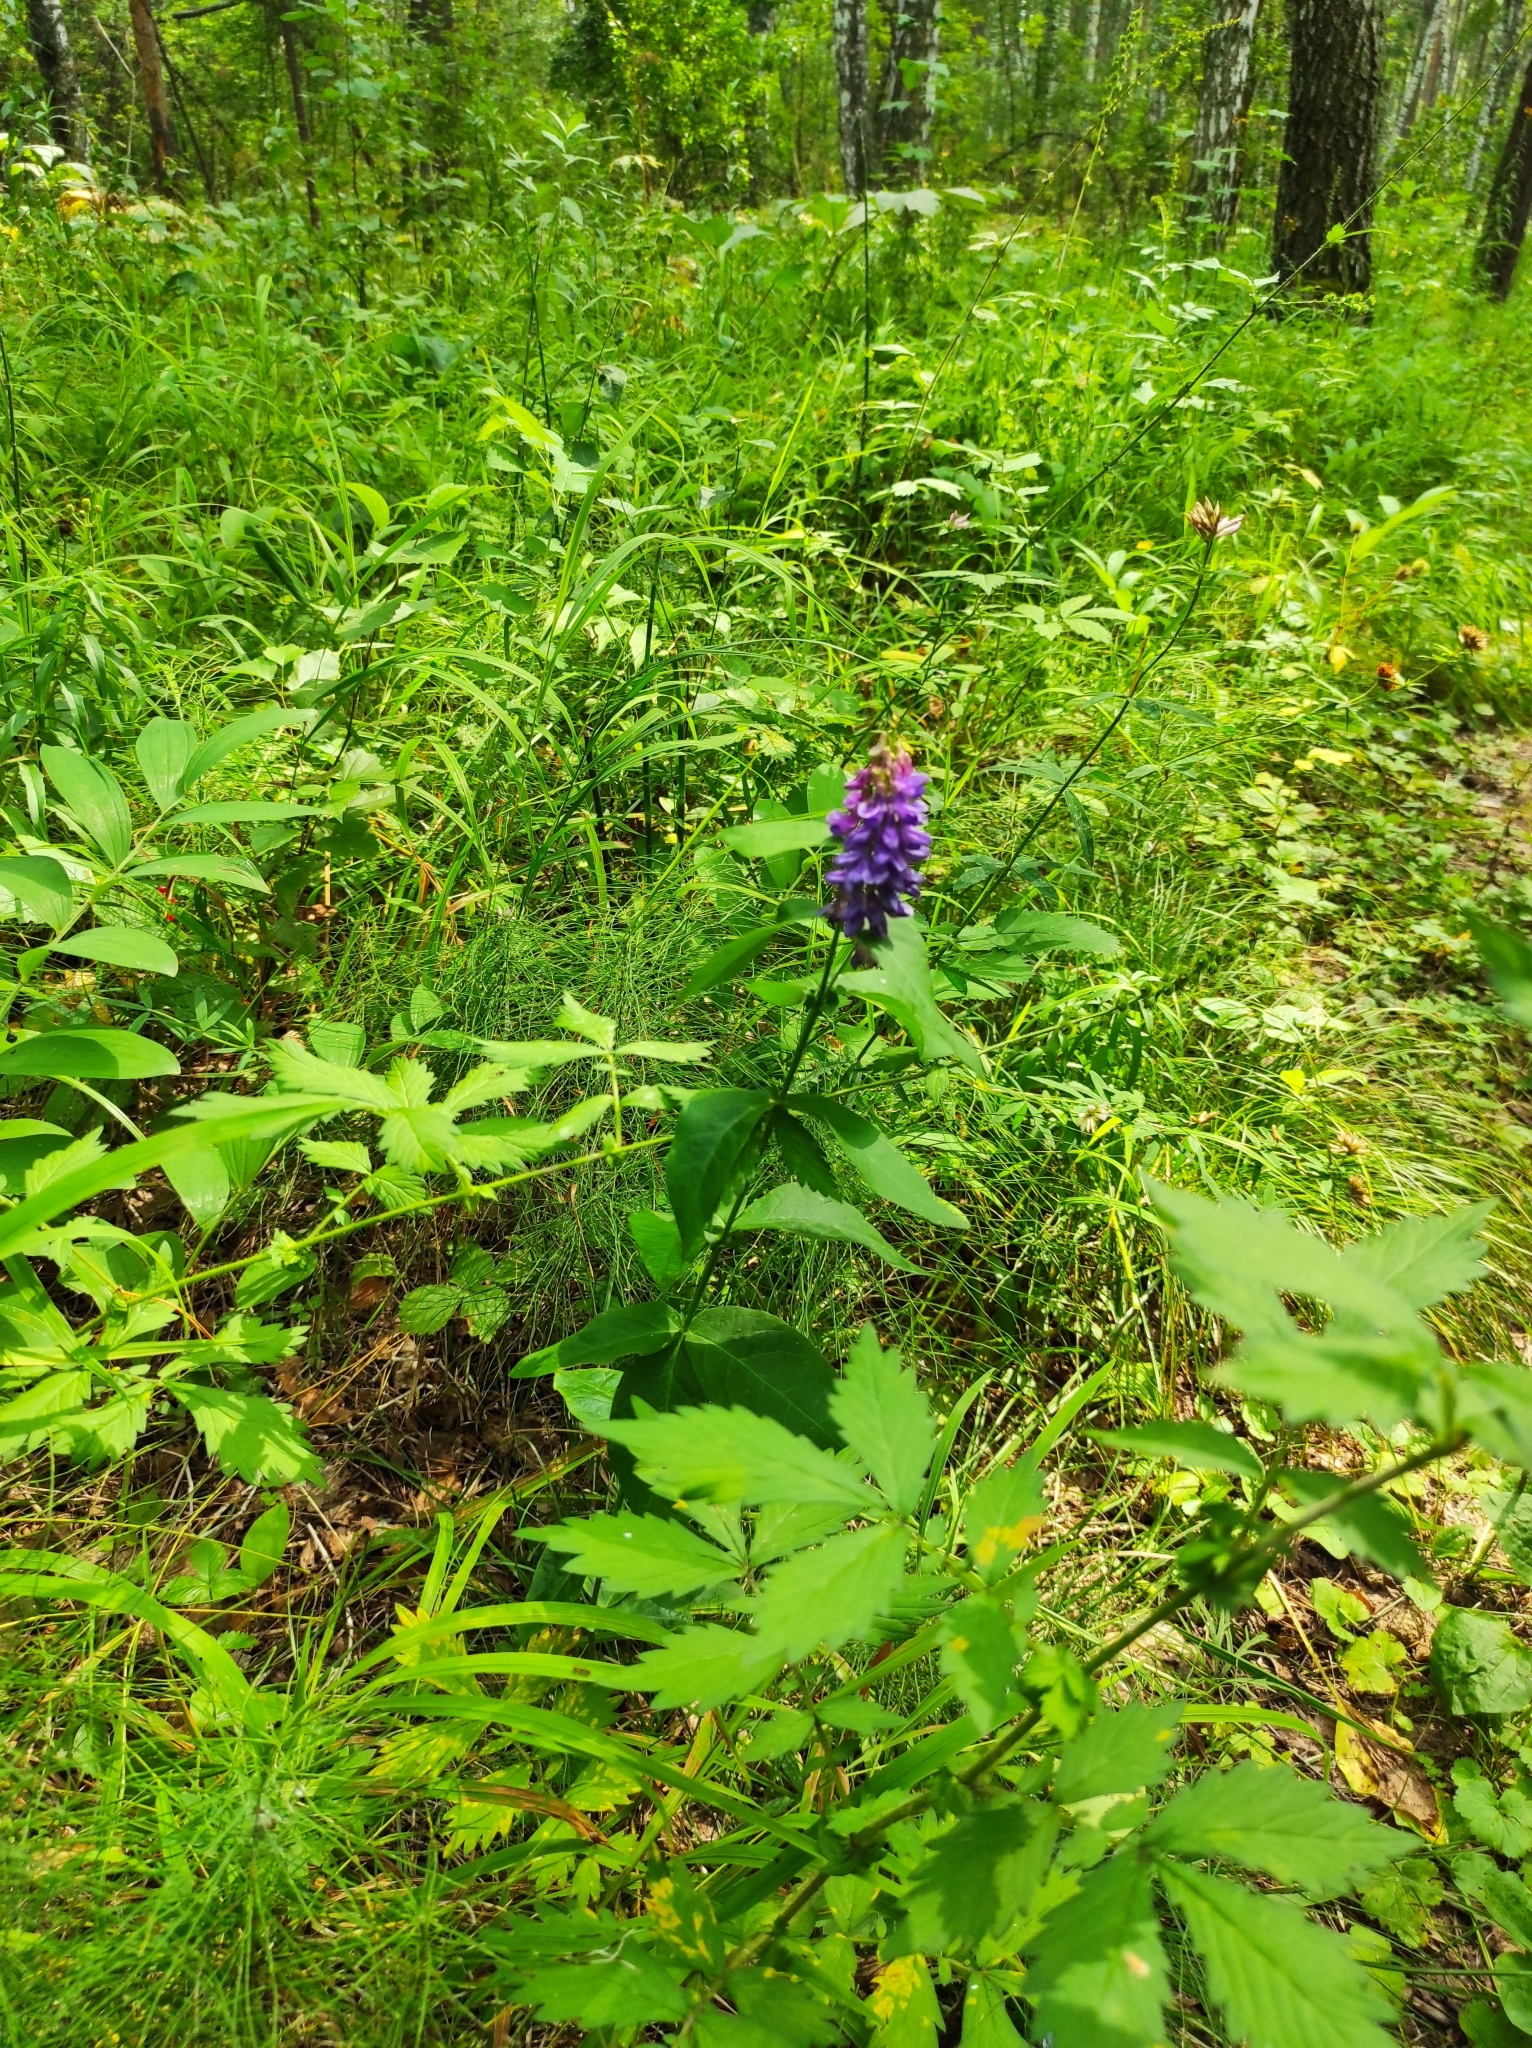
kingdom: Plantae
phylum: Tracheophyta
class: Magnoliopsida
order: Fabales
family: Fabaceae
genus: Vicia
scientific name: Vicia unijuga
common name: Two-leaf vetch
